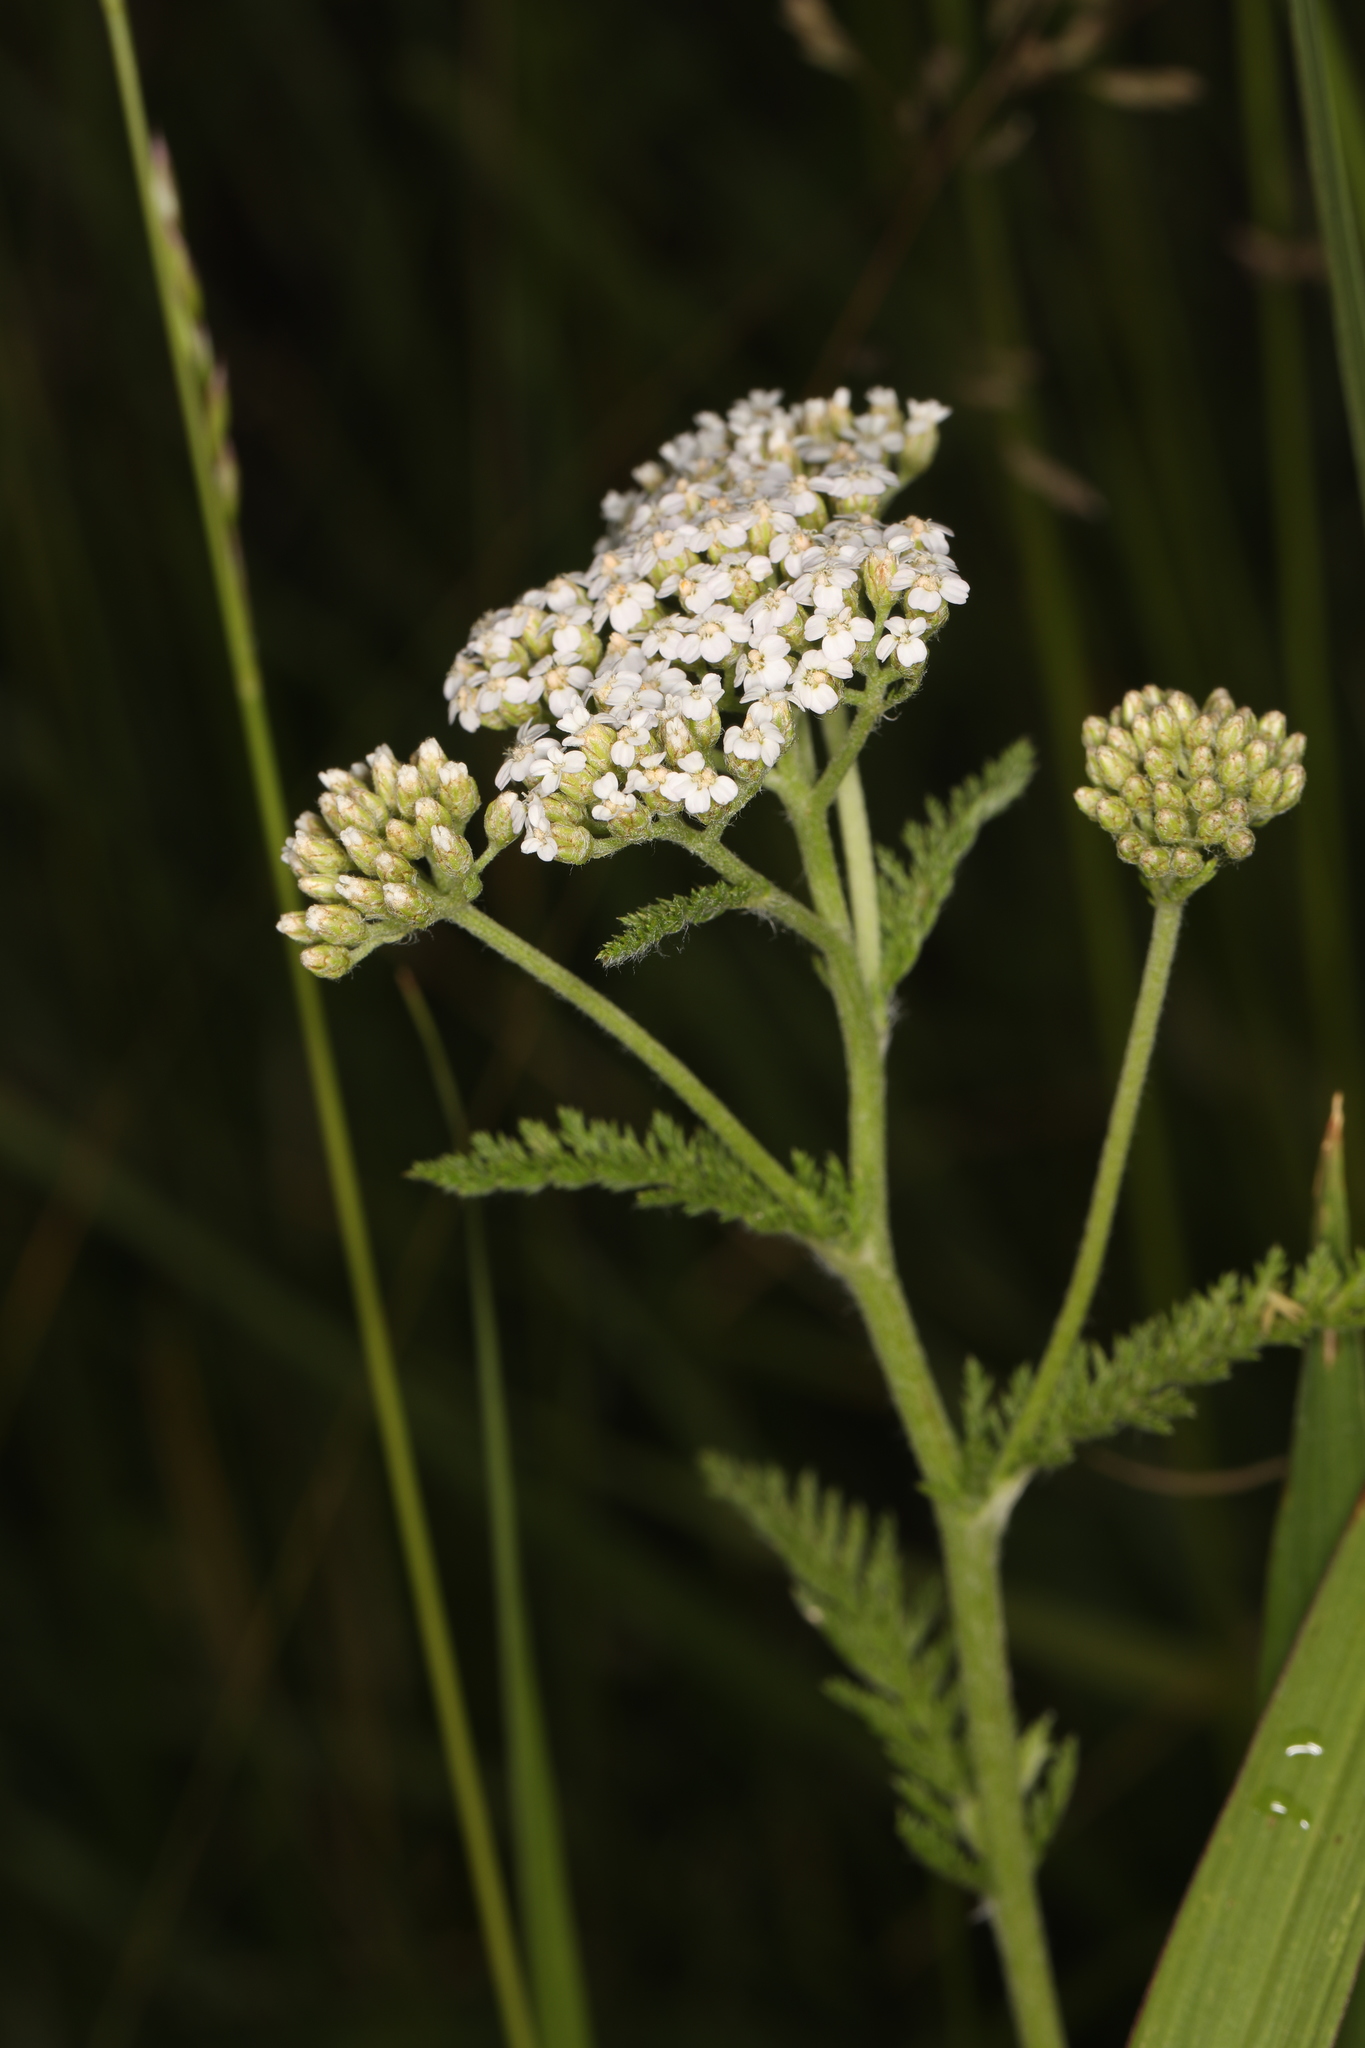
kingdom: Plantae
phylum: Tracheophyta
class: Magnoliopsida
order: Asterales
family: Asteraceae
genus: Achillea
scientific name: Achillea millefolium
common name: Yarrow
